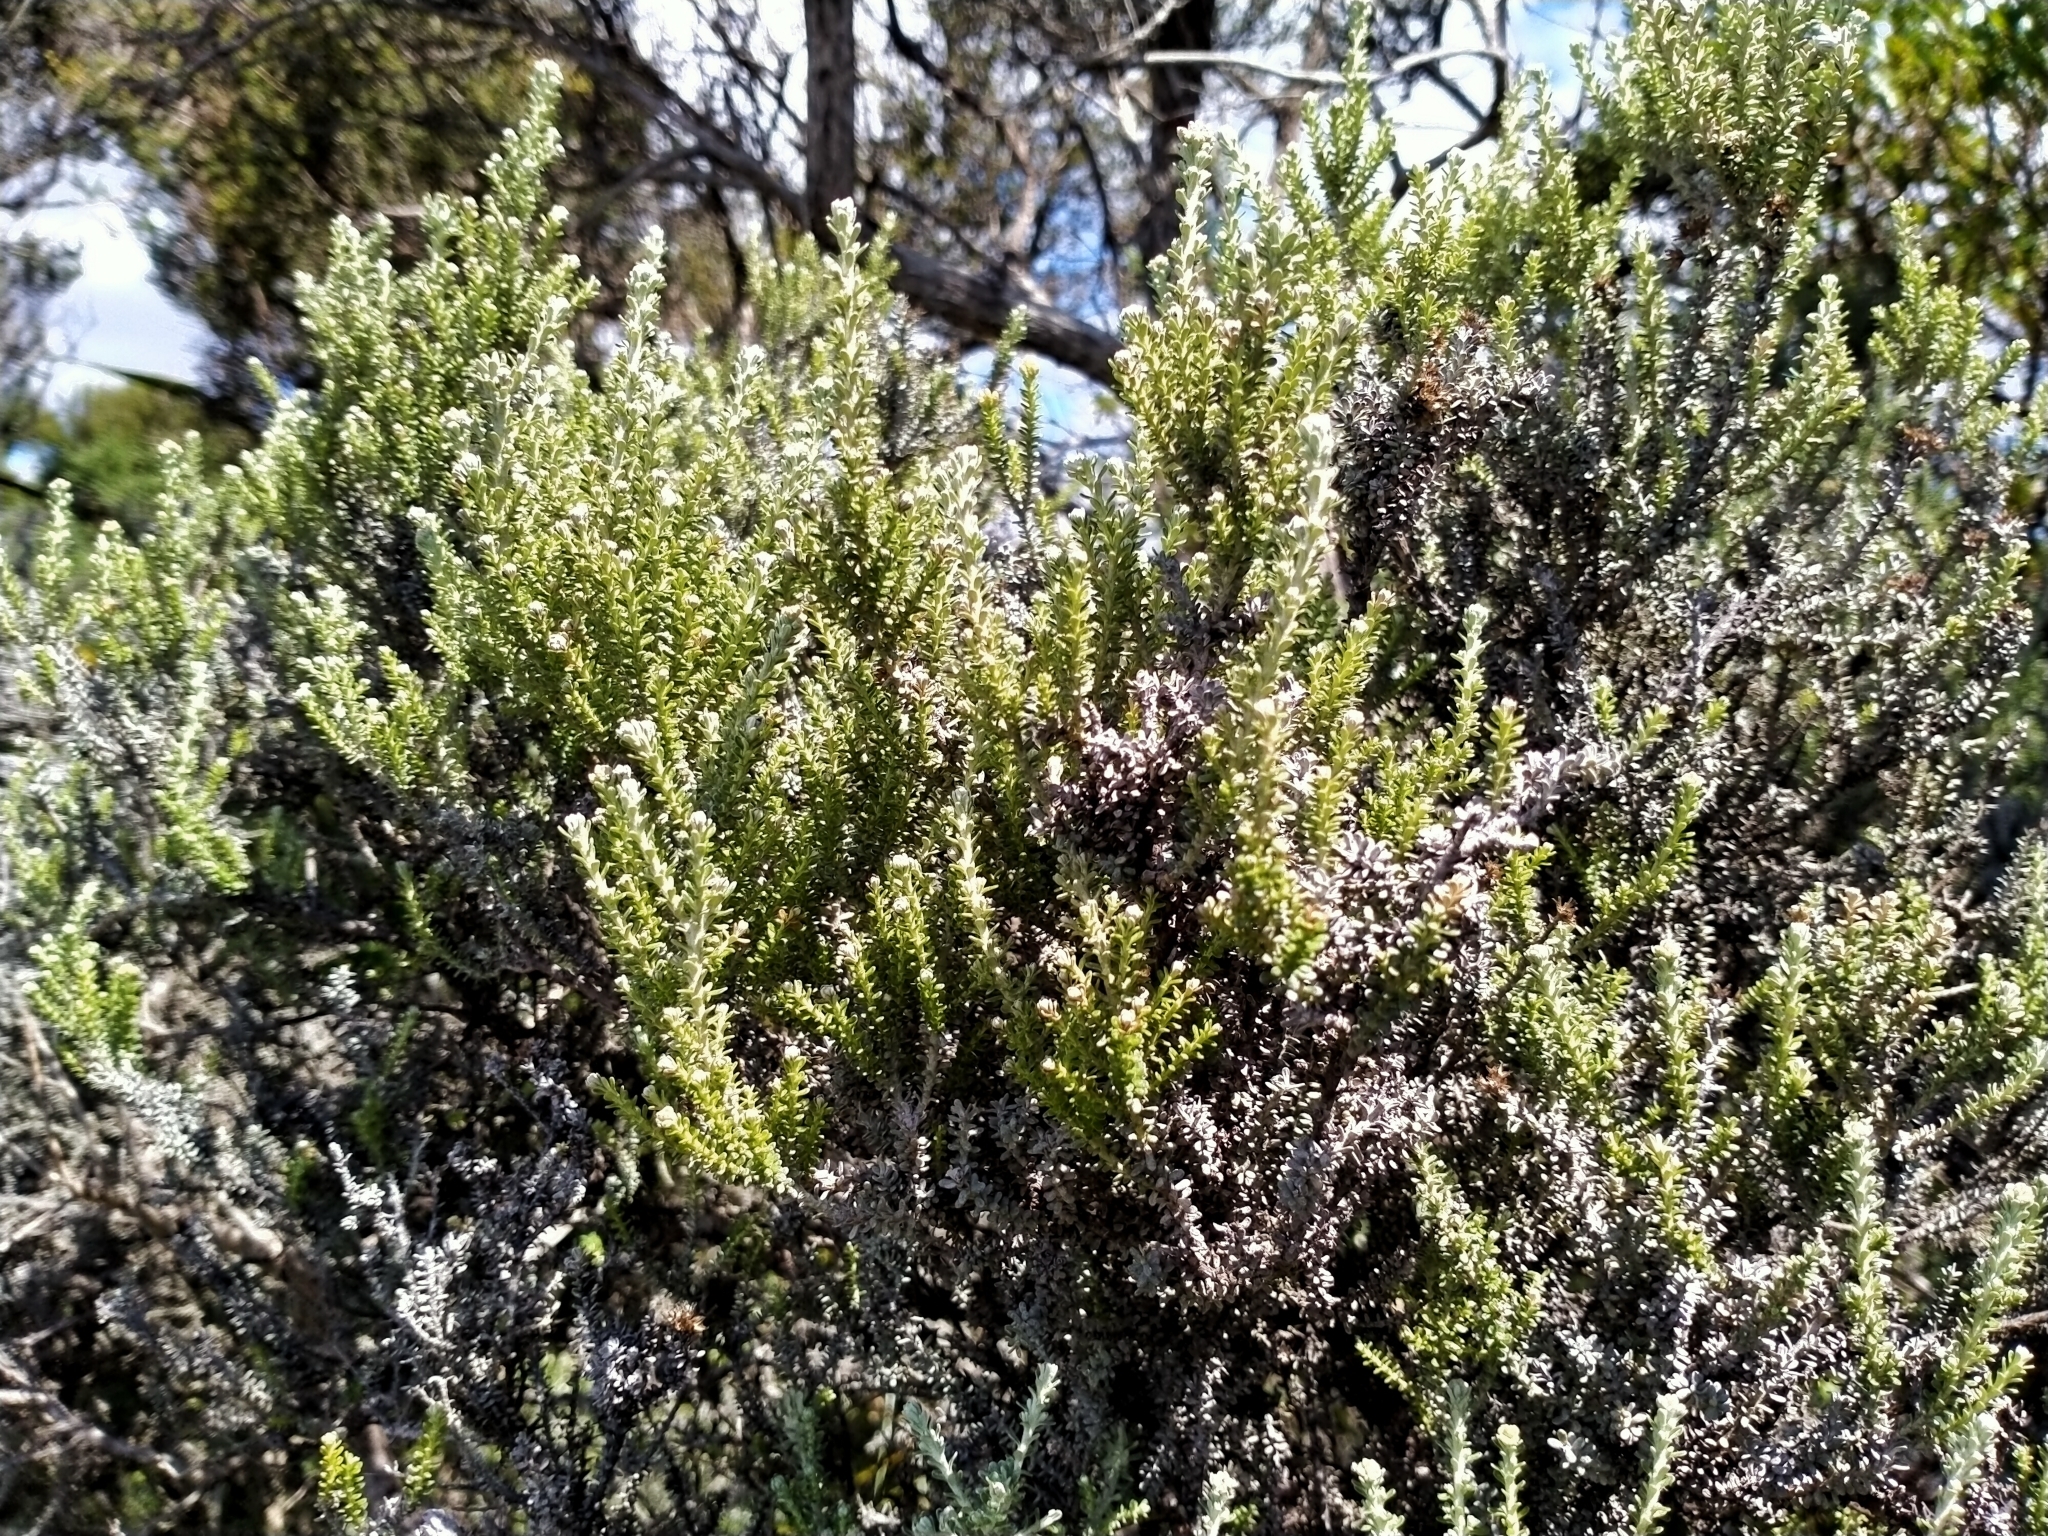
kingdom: Plantae
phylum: Tracheophyta
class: Magnoliopsida
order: Asterales
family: Asteraceae
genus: Ozothamnus
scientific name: Ozothamnus leptophyllus
